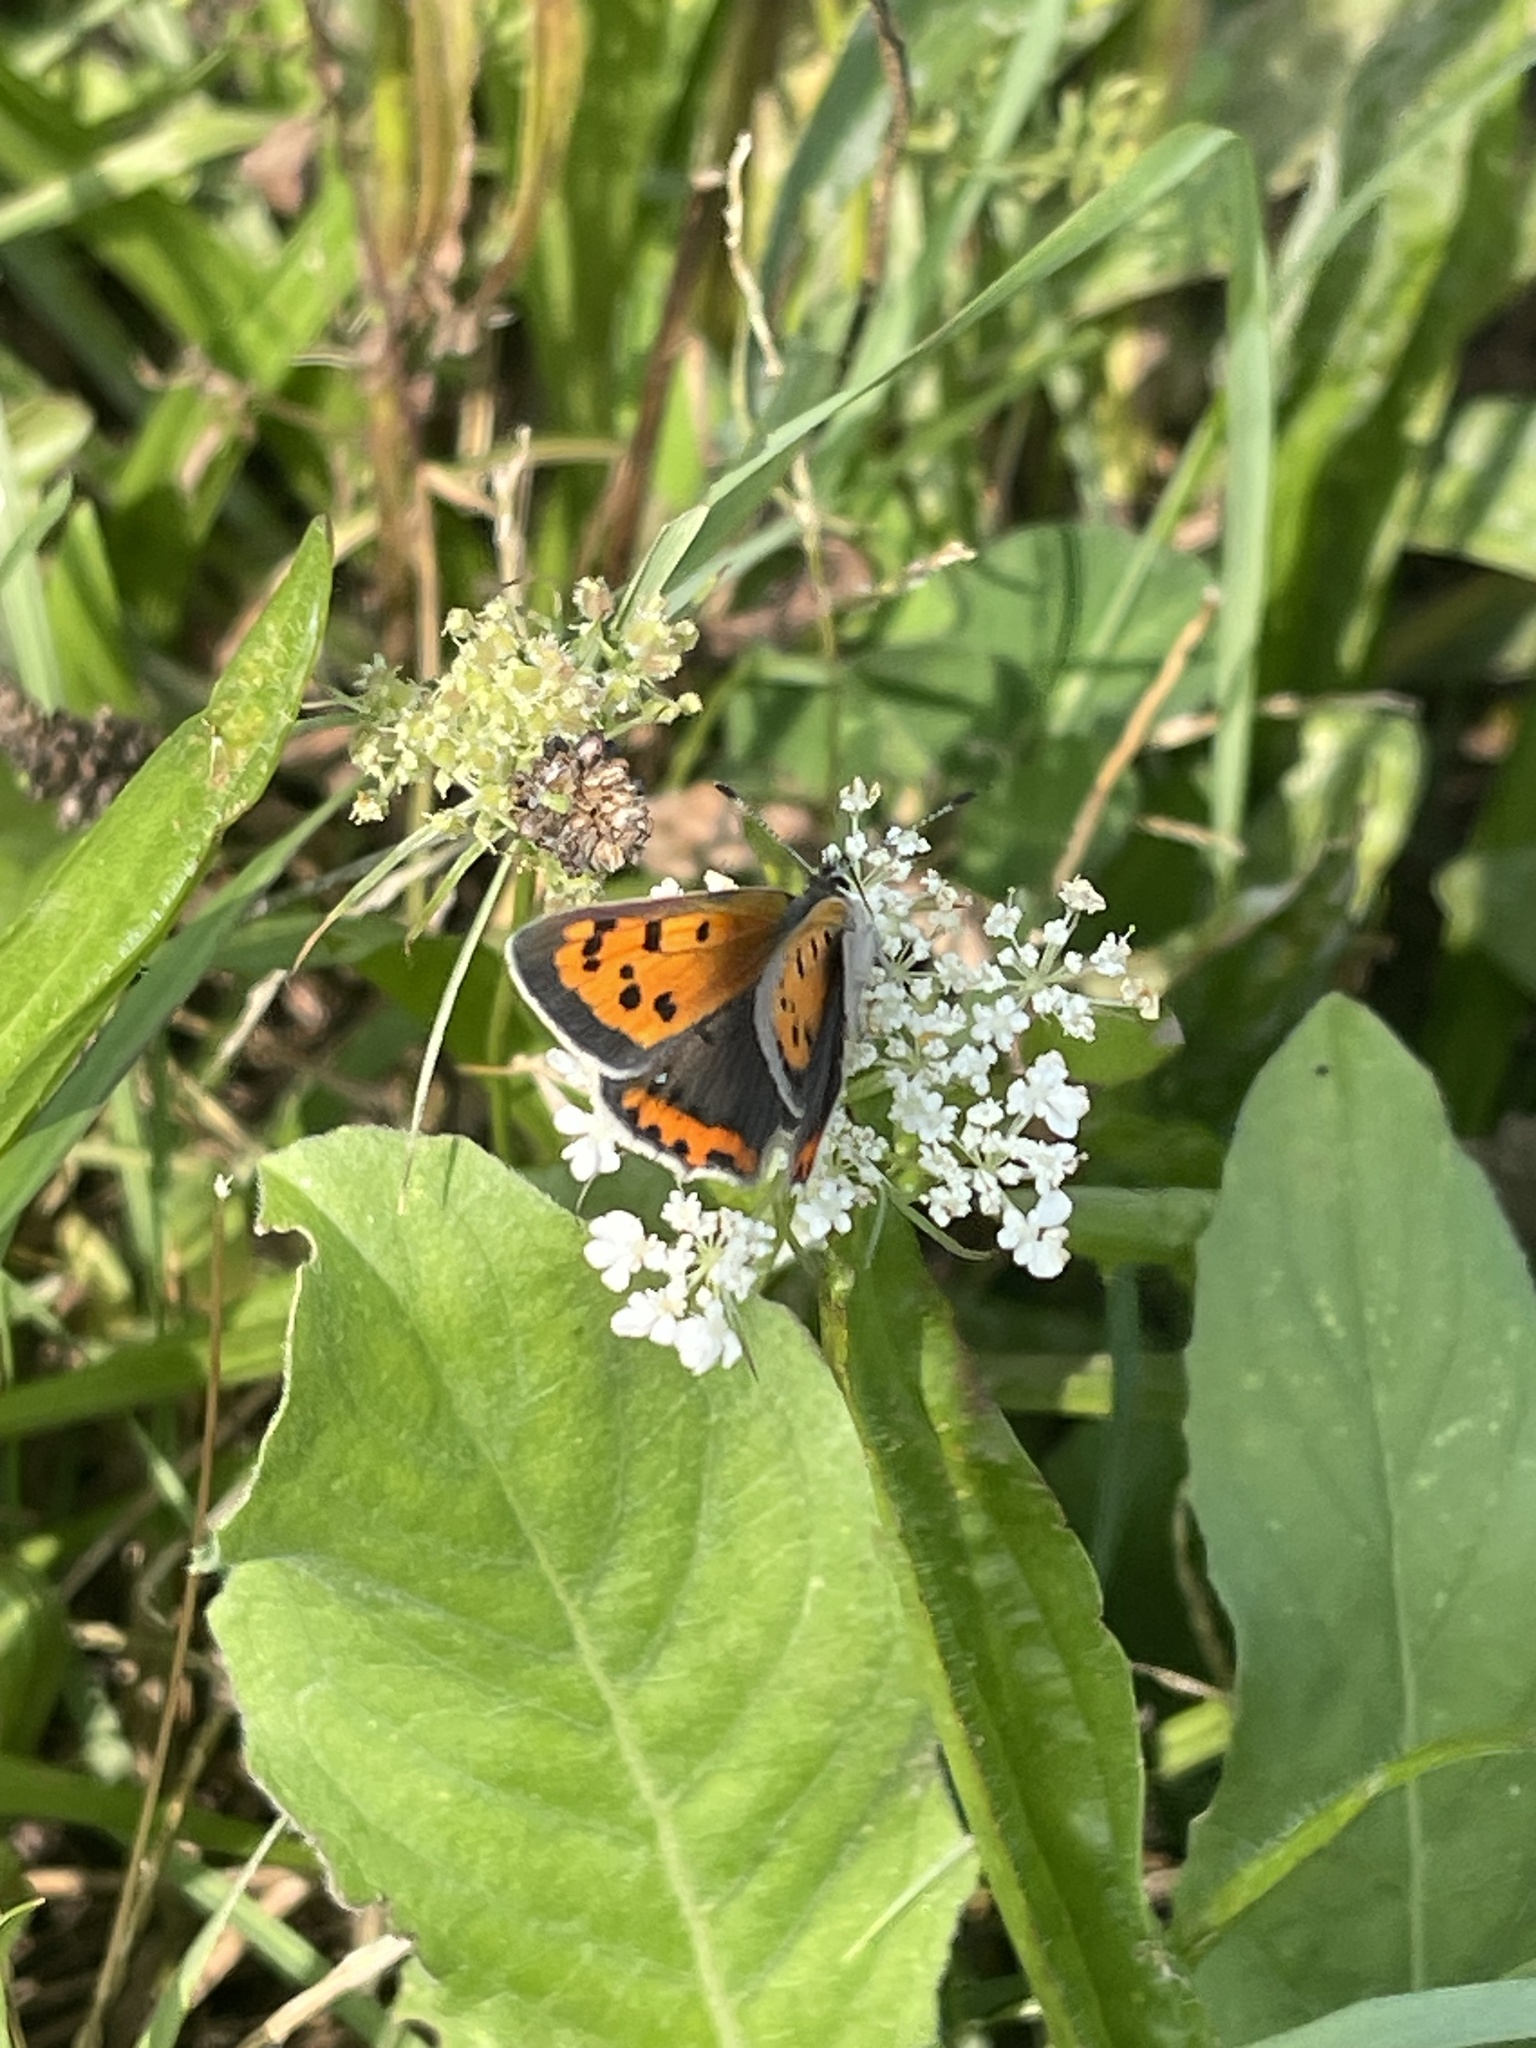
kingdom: Animalia
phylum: Arthropoda
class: Insecta
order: Lepidoptera
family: Lycaenidae
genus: Lycaena
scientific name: Lycaena hypophlaeas
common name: American copper
